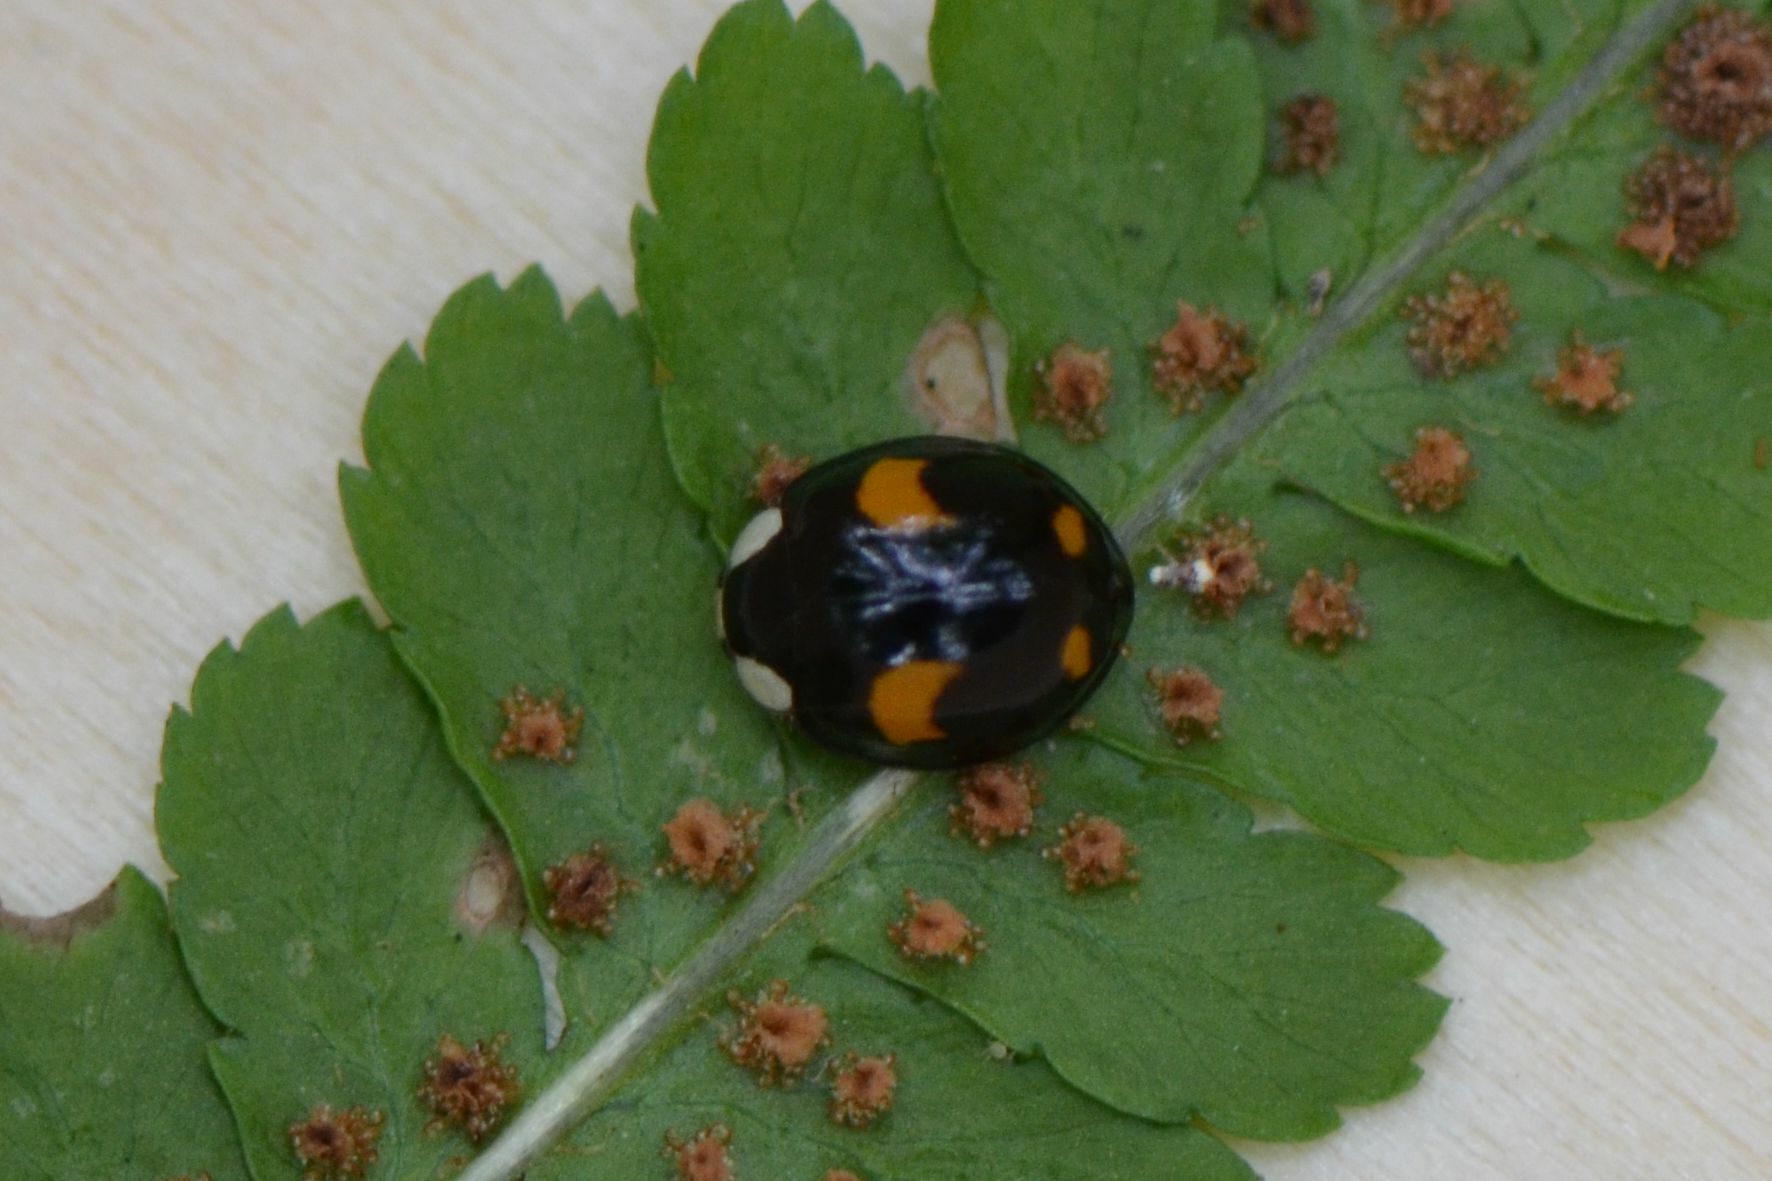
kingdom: Animalia
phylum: Arthropoda
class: Insecta
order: Coleoptera
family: Coccinellidae
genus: Harmonia
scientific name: Harmonia axyridis
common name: Harlequin ladybird
